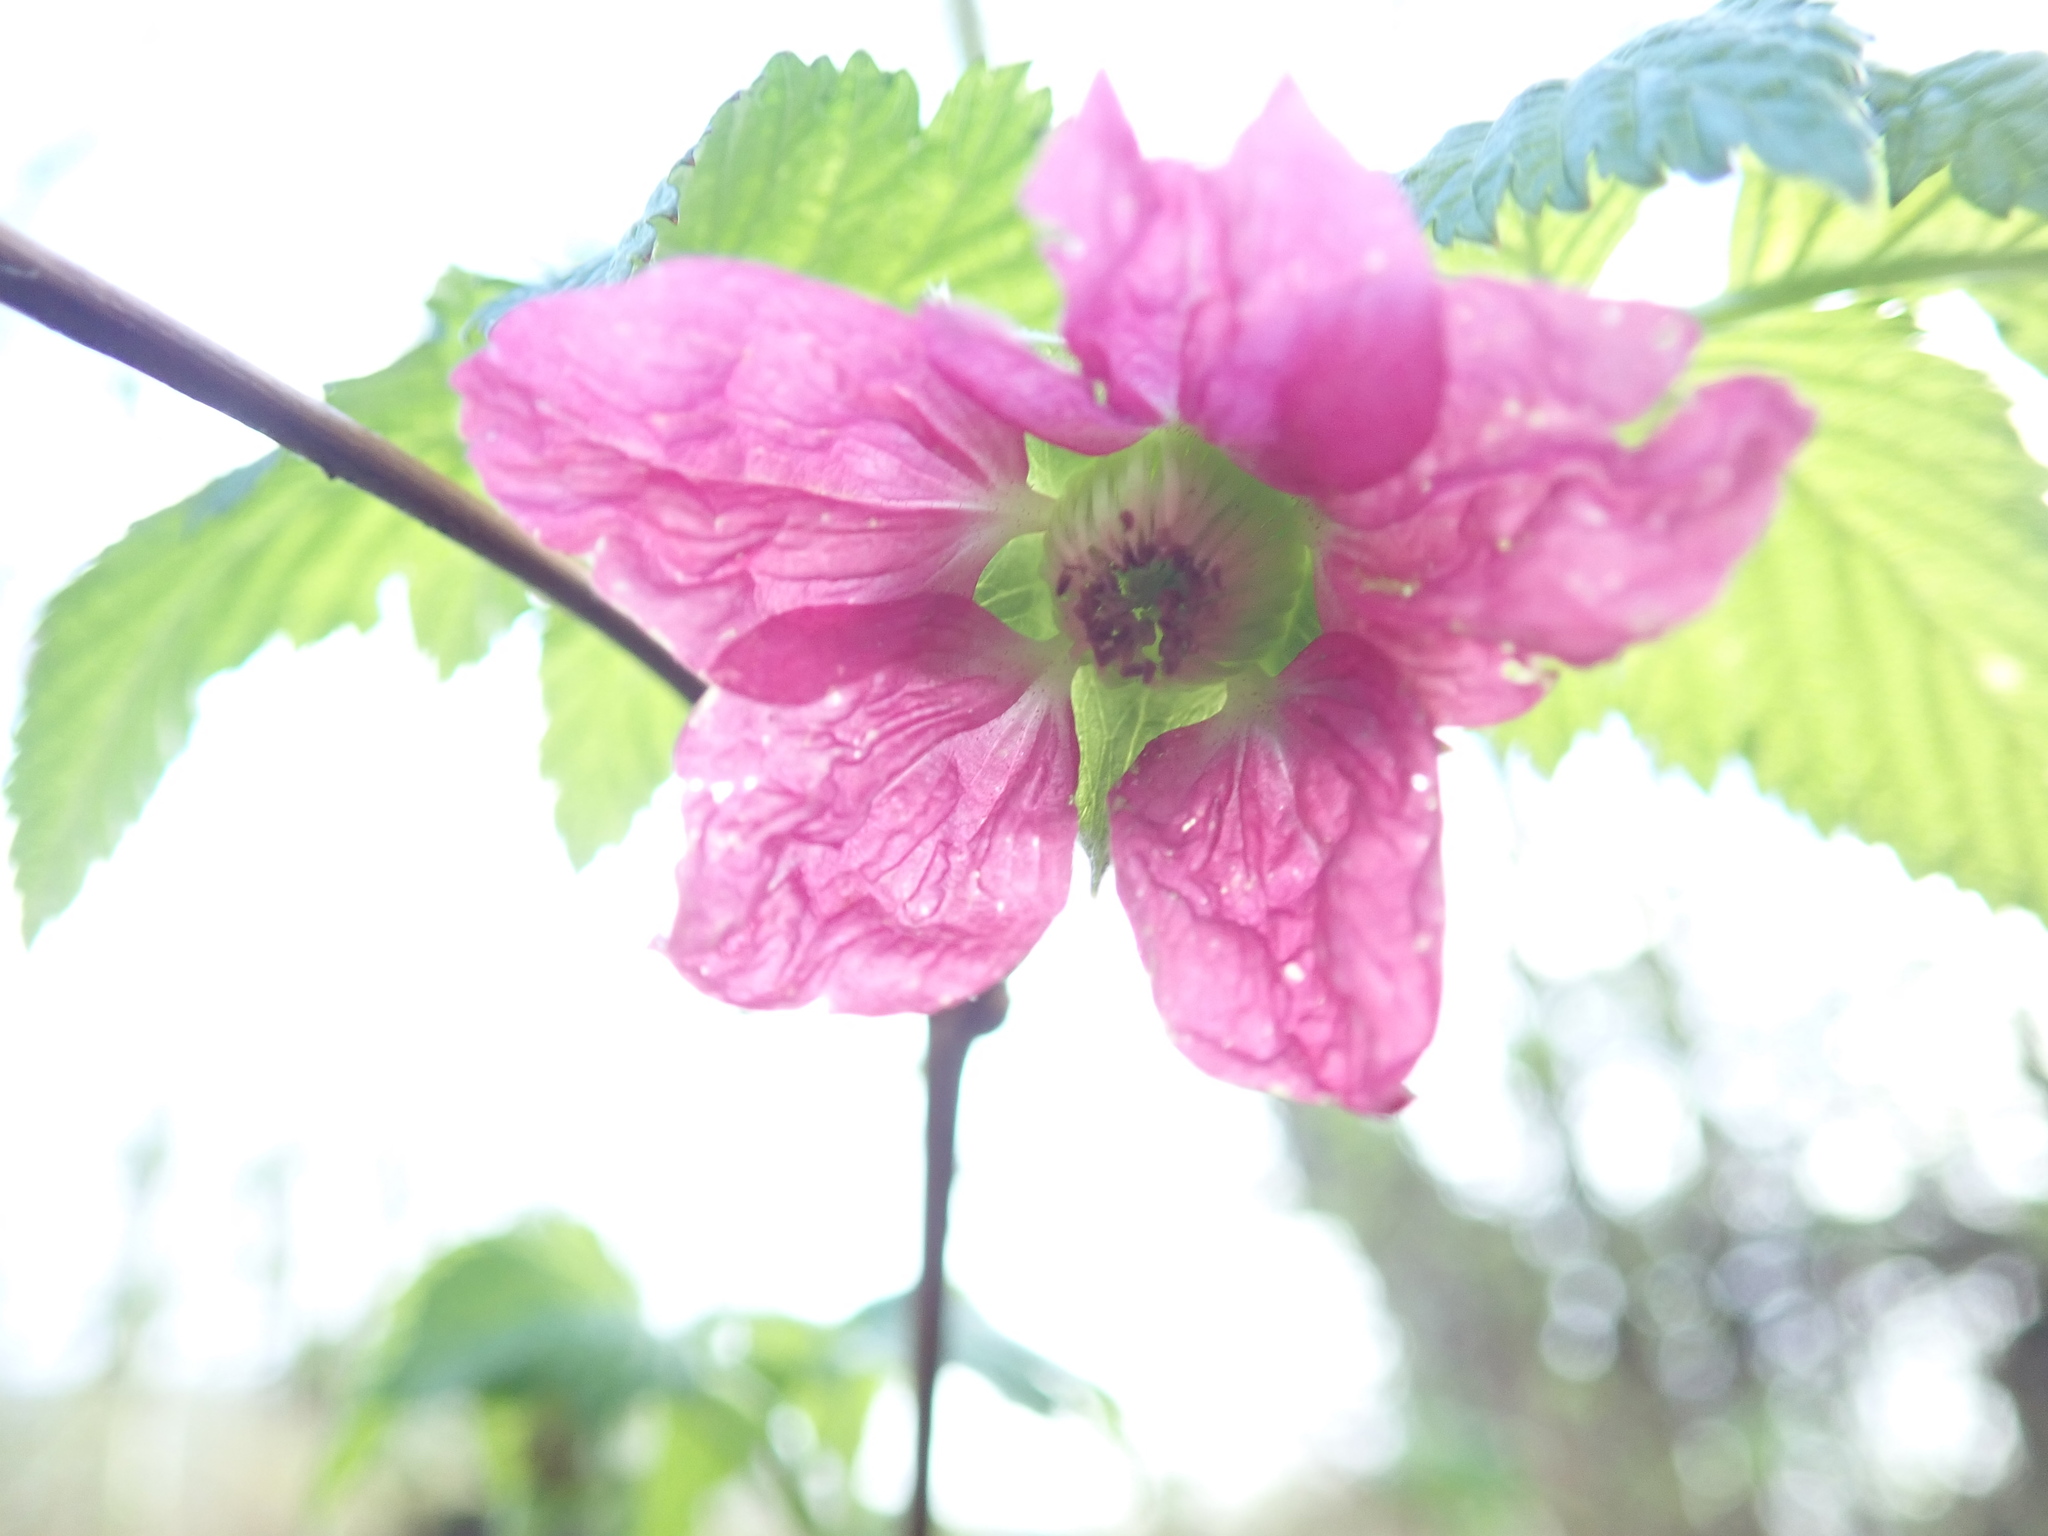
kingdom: Plantae
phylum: Tracheophyta
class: Magnoliopsida
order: Rosales
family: Rosaceae
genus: Rubus
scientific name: Rubus spectabilis
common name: Salmonberry
